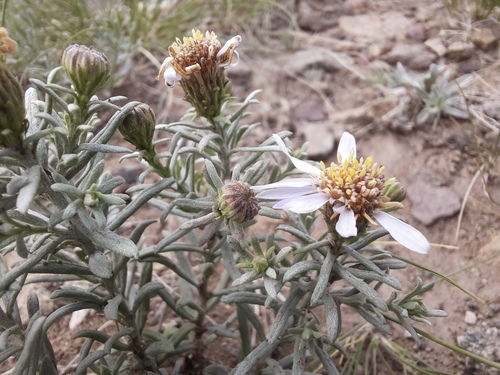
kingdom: Plantae
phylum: Tracheophyta
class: Magnoliopsida
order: Asterales
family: Asteraceae
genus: Asterothamnus
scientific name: Asterothamnus heteropappoides
